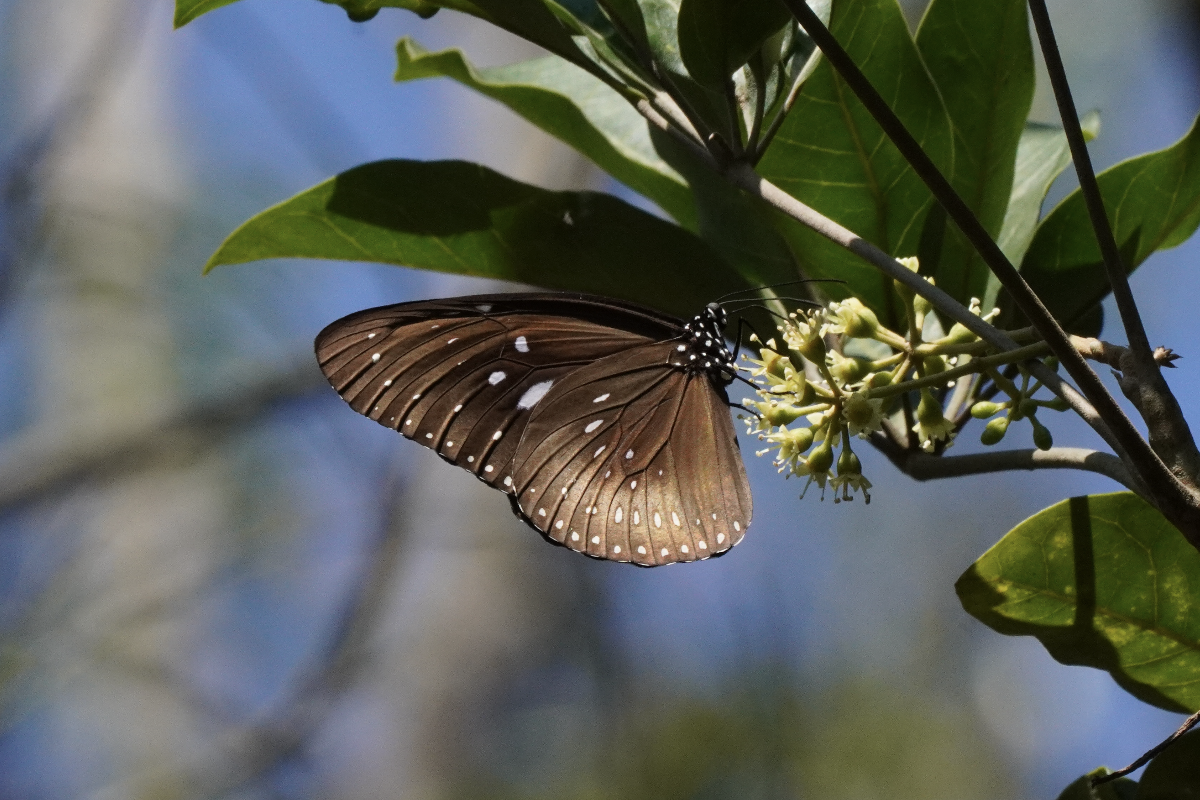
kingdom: Animalia
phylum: Arthropoda
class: Insecta
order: Lepidoptera
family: Nymphalidae
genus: Euploea
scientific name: Euploea midamus
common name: Blue-spotted crow butterfly
